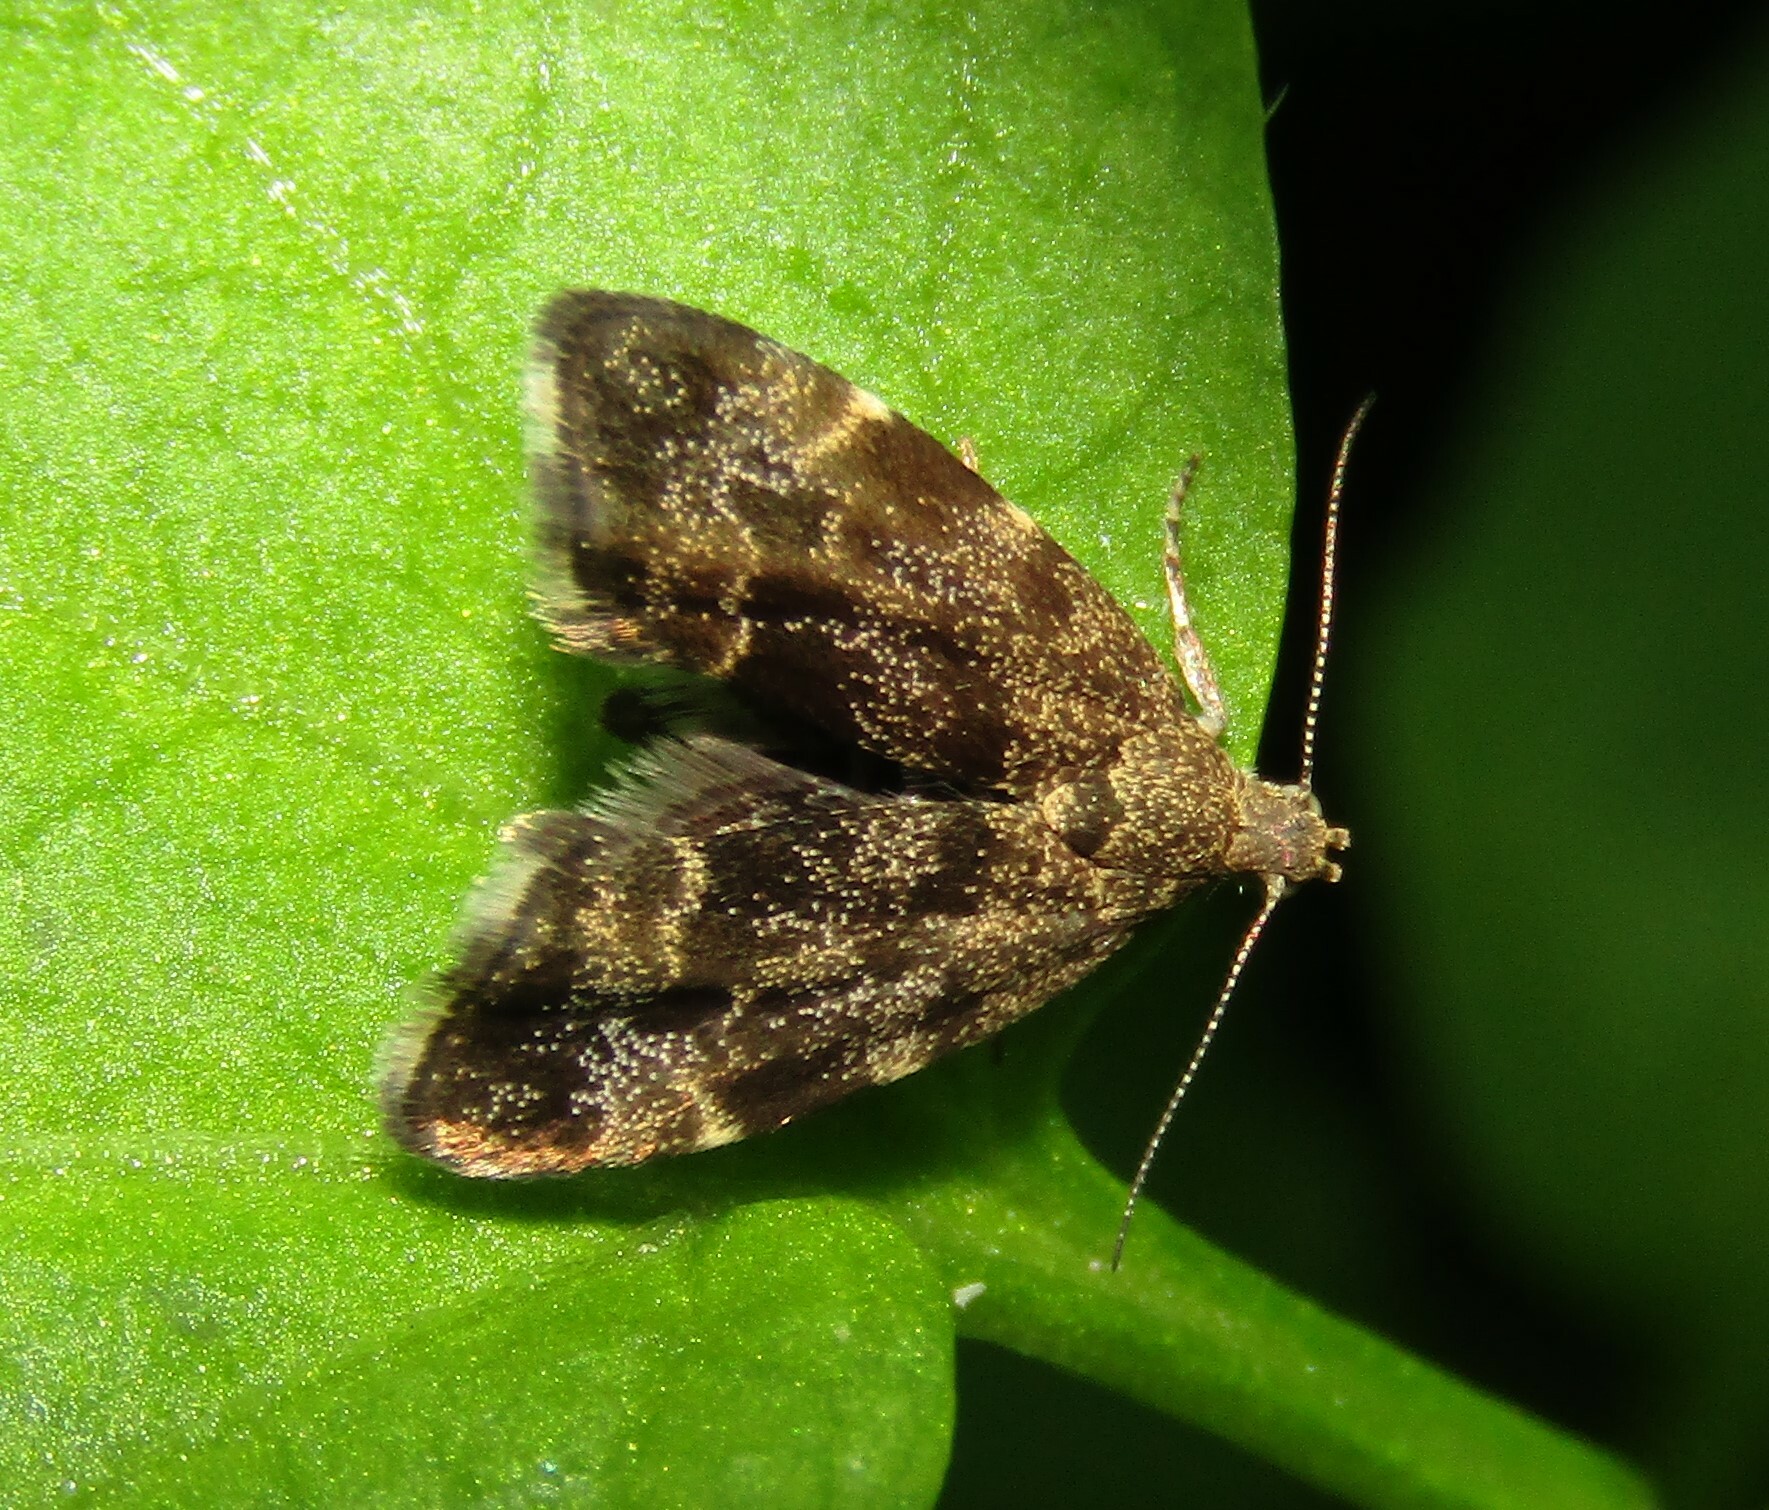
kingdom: Animalia
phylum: Arthropoda
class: Insecta
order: Lepidoptera
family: Choreutidae
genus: Anthophila
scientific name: Anthophila fabriciana
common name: Nettle-tap
